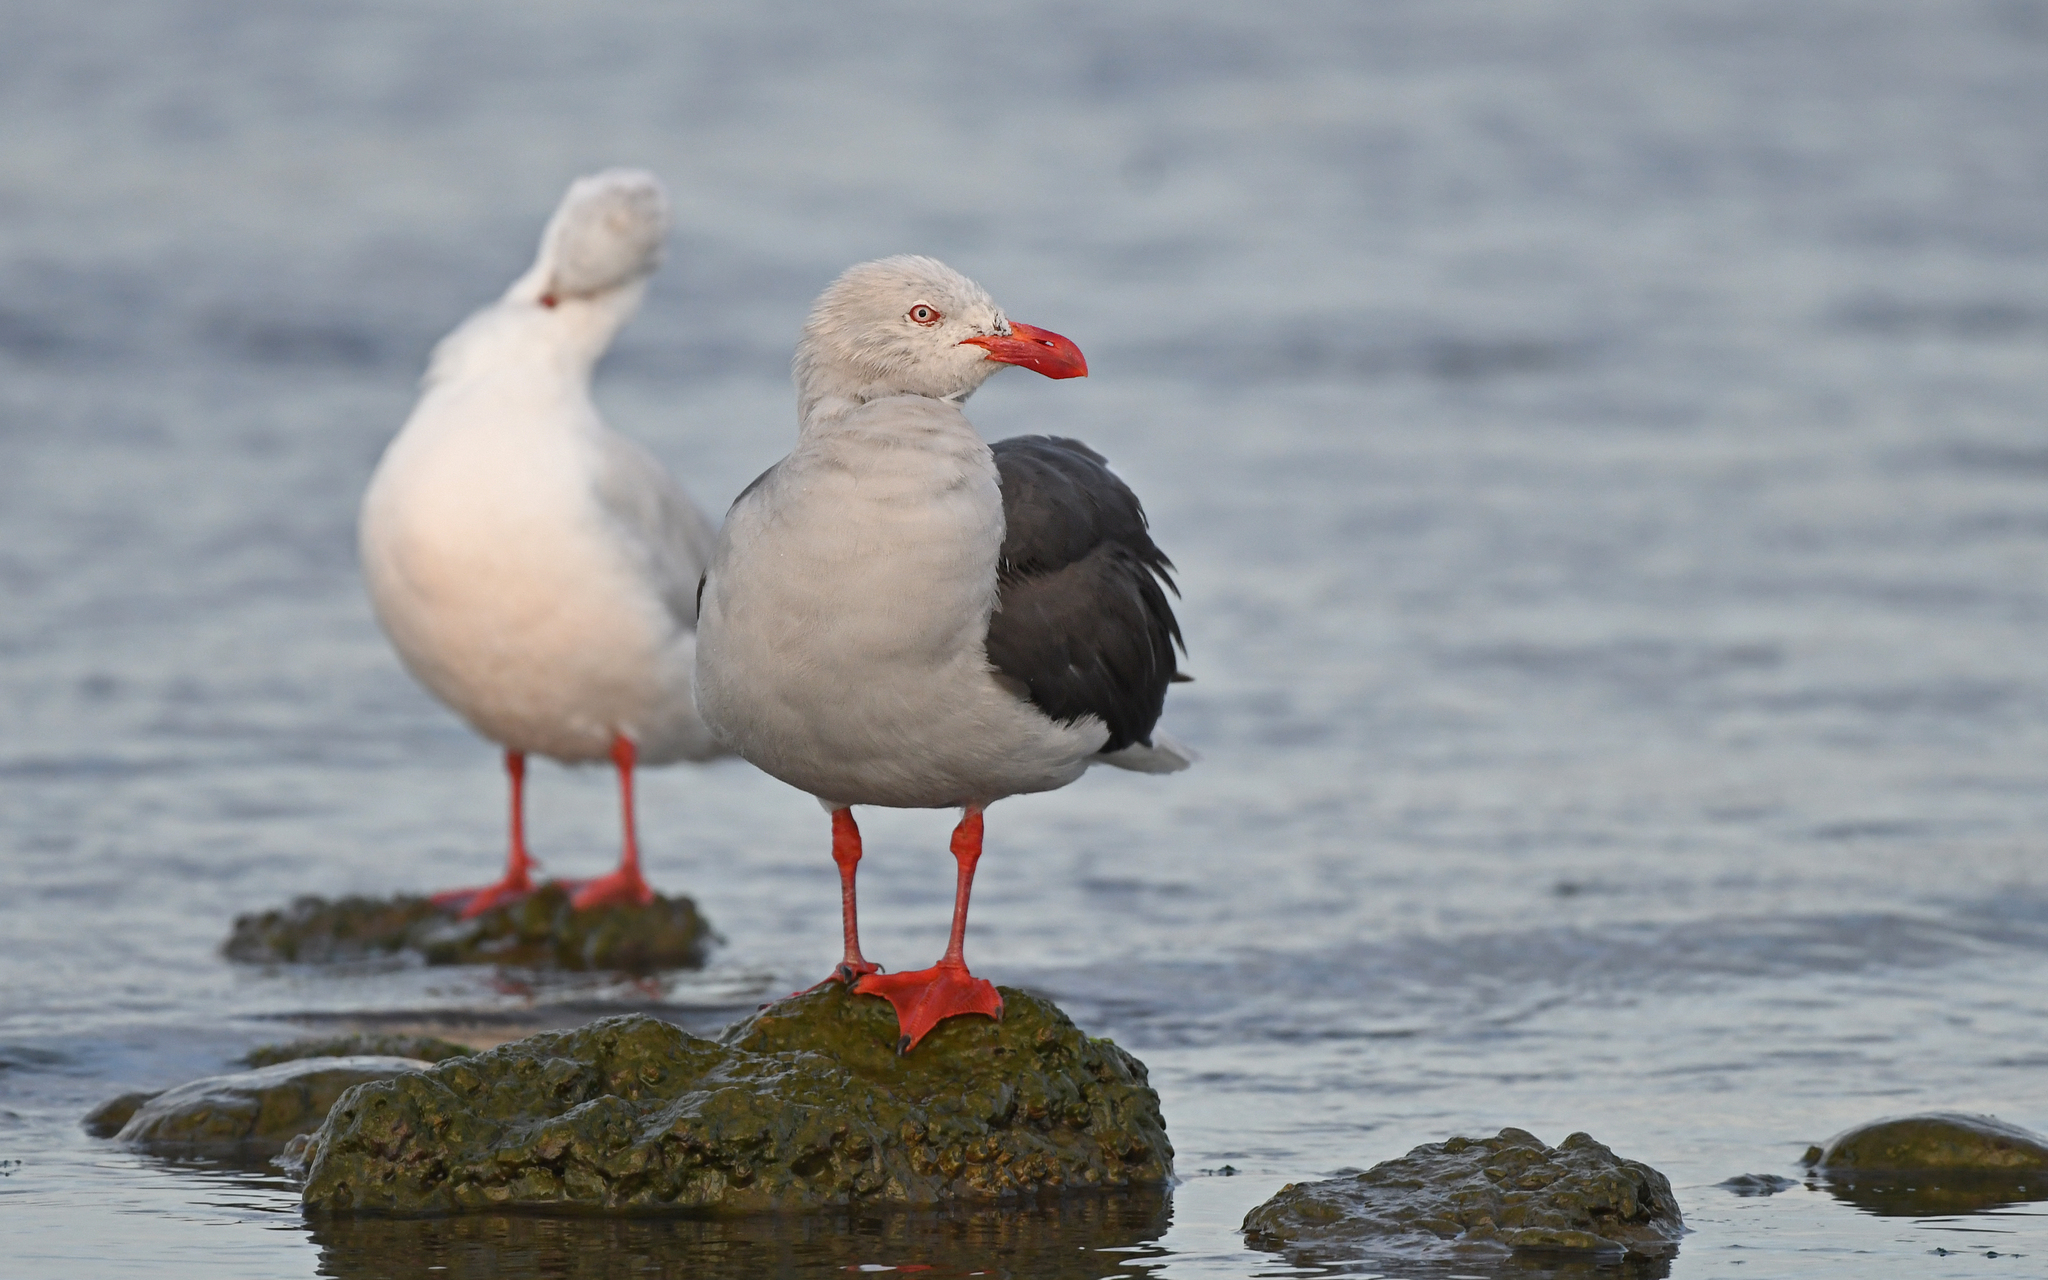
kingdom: Animalia
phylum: Chordata
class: Aves
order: Charadriiformes
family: Laridae
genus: Leucophaeus
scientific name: Leucophaeus scoresbii
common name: Dolphin gull
